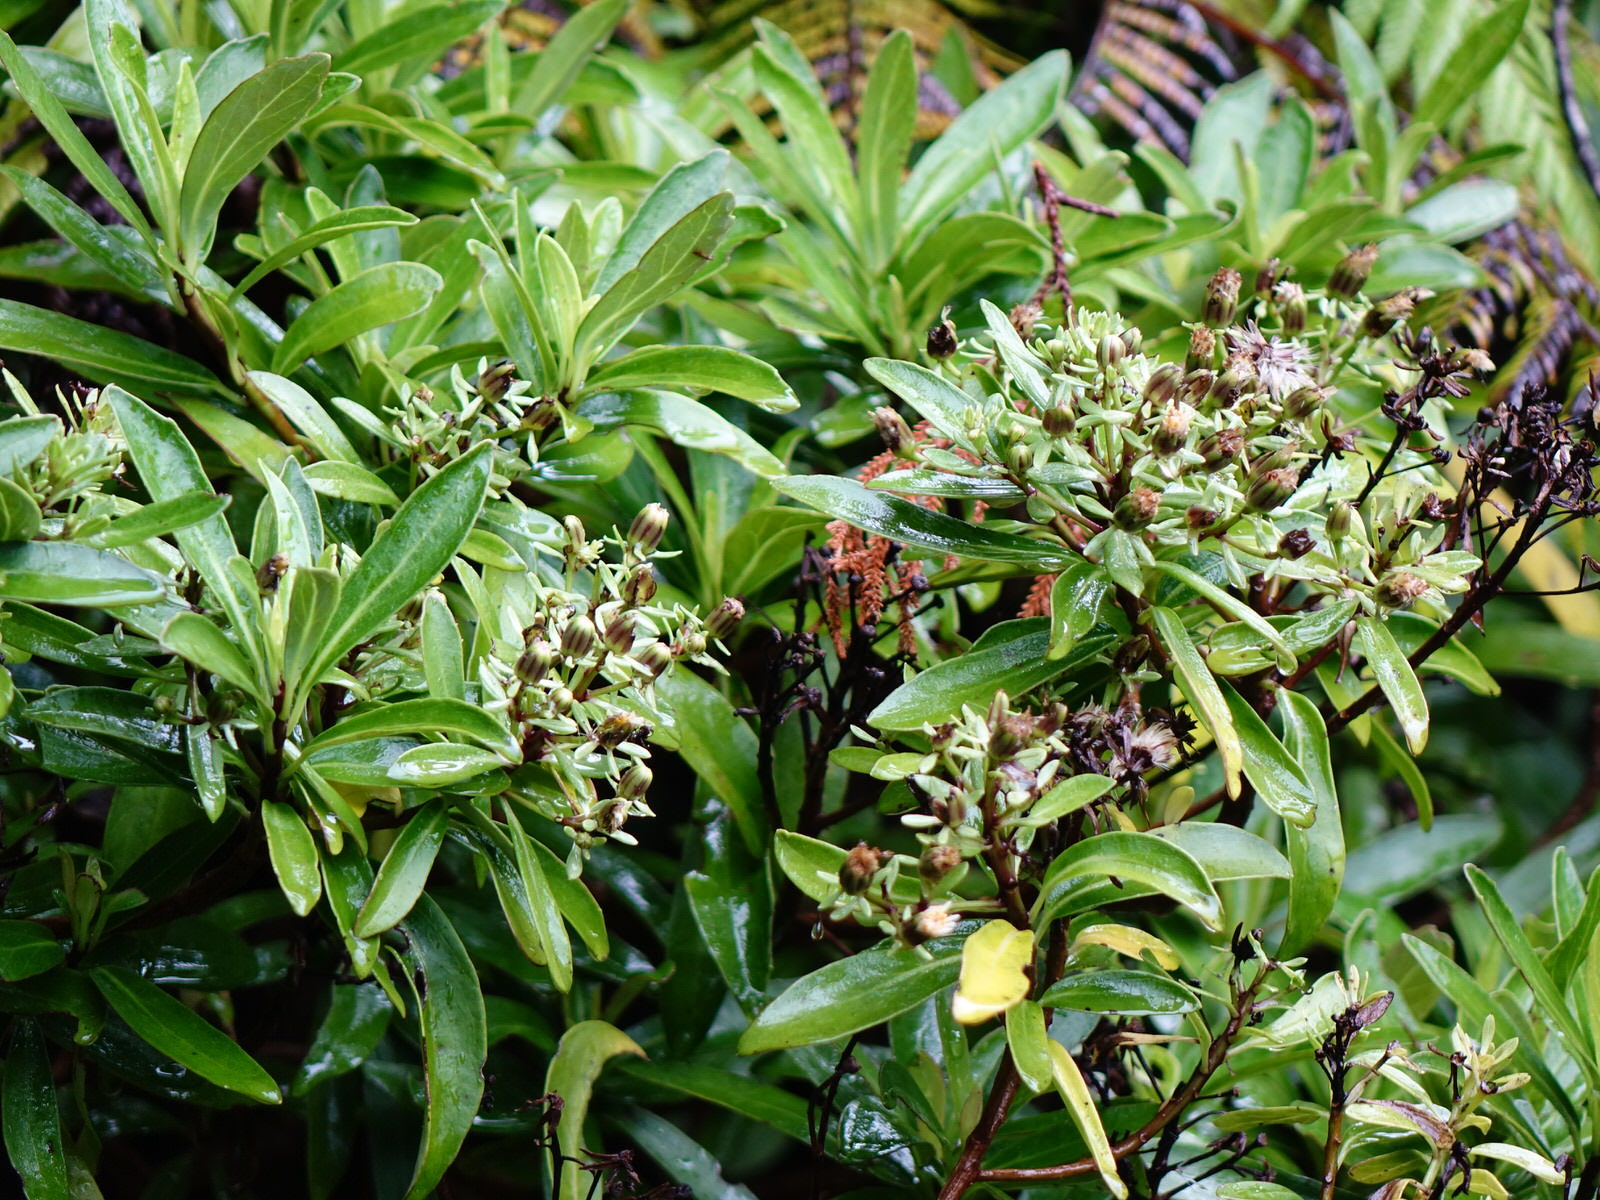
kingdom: Plantae
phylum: Tracheophyta
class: Magnoliopsida
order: Asterales
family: Asteraceae
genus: Brachyglottis
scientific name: Brachyglottis kirkii
